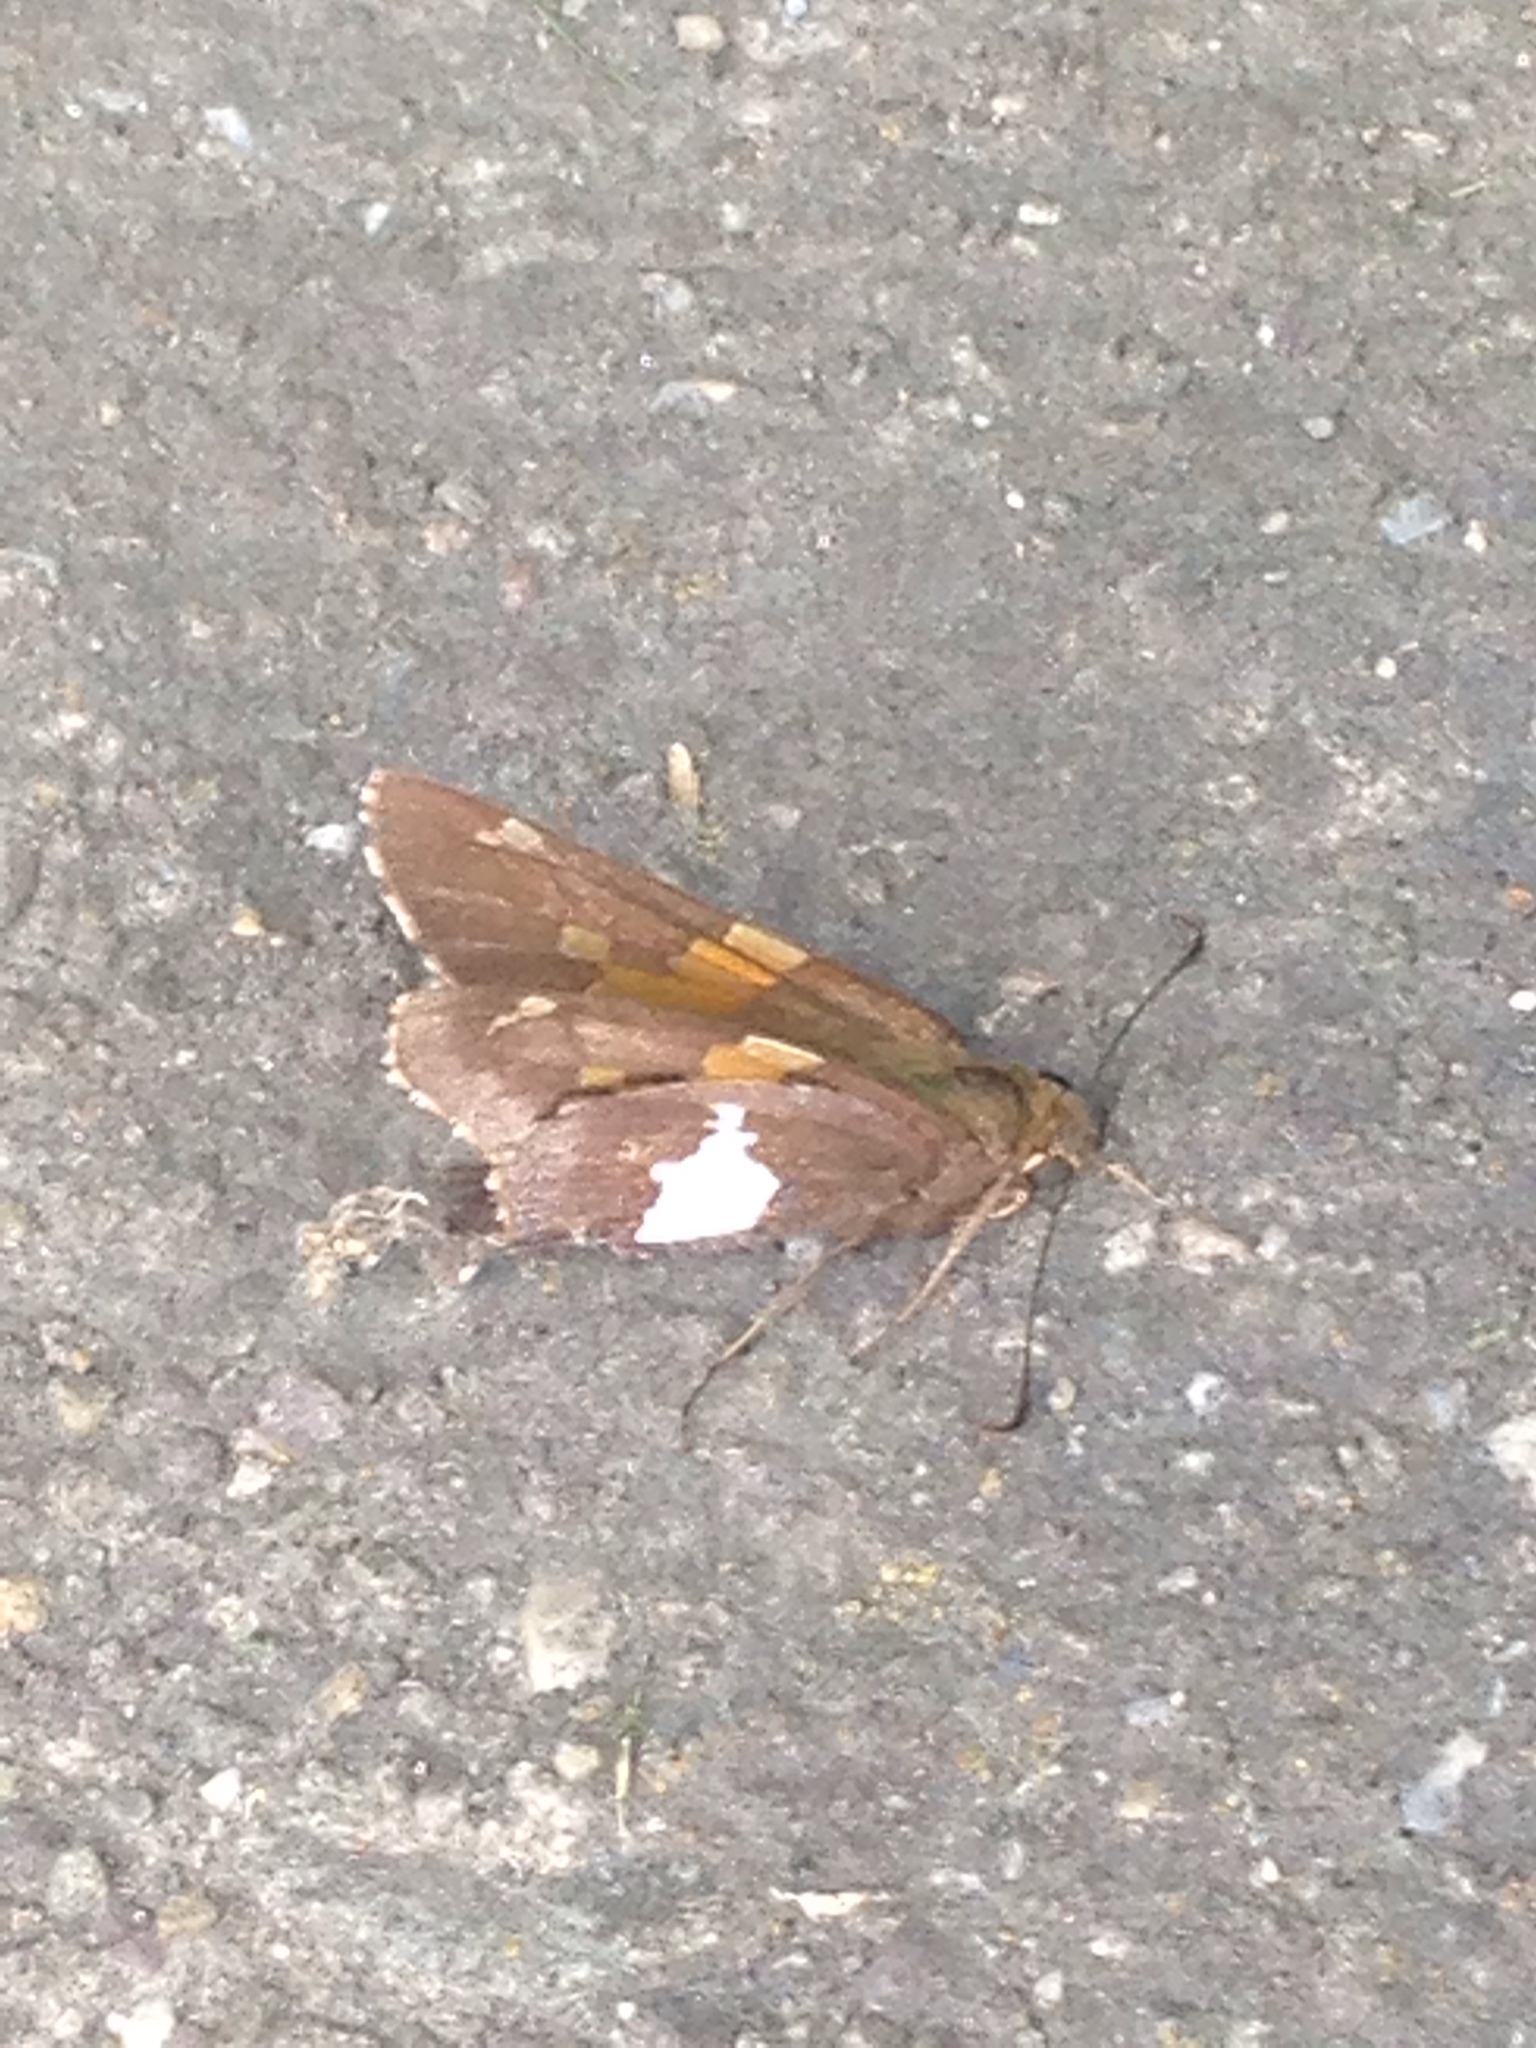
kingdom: Animalia
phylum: Arthropoda
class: Insecta
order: Lepidoptera
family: Hesperiidae
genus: Epargyreus
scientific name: Epargyreus clarus
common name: Silver-spotted skipper
